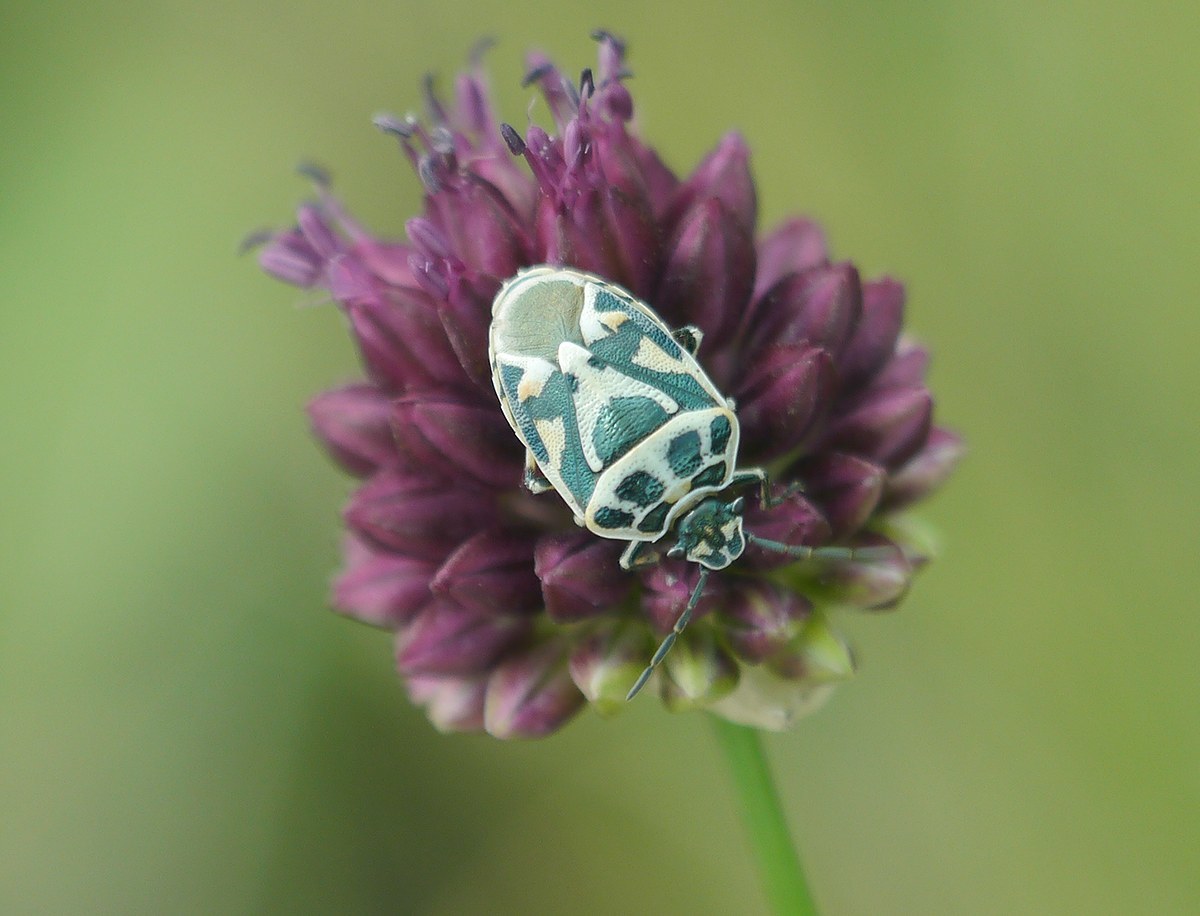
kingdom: Animalia
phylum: Arthropoda
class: Insecta
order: Hemiptera
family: Pentatomidae
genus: Eurydema
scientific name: Eurydema ornata
